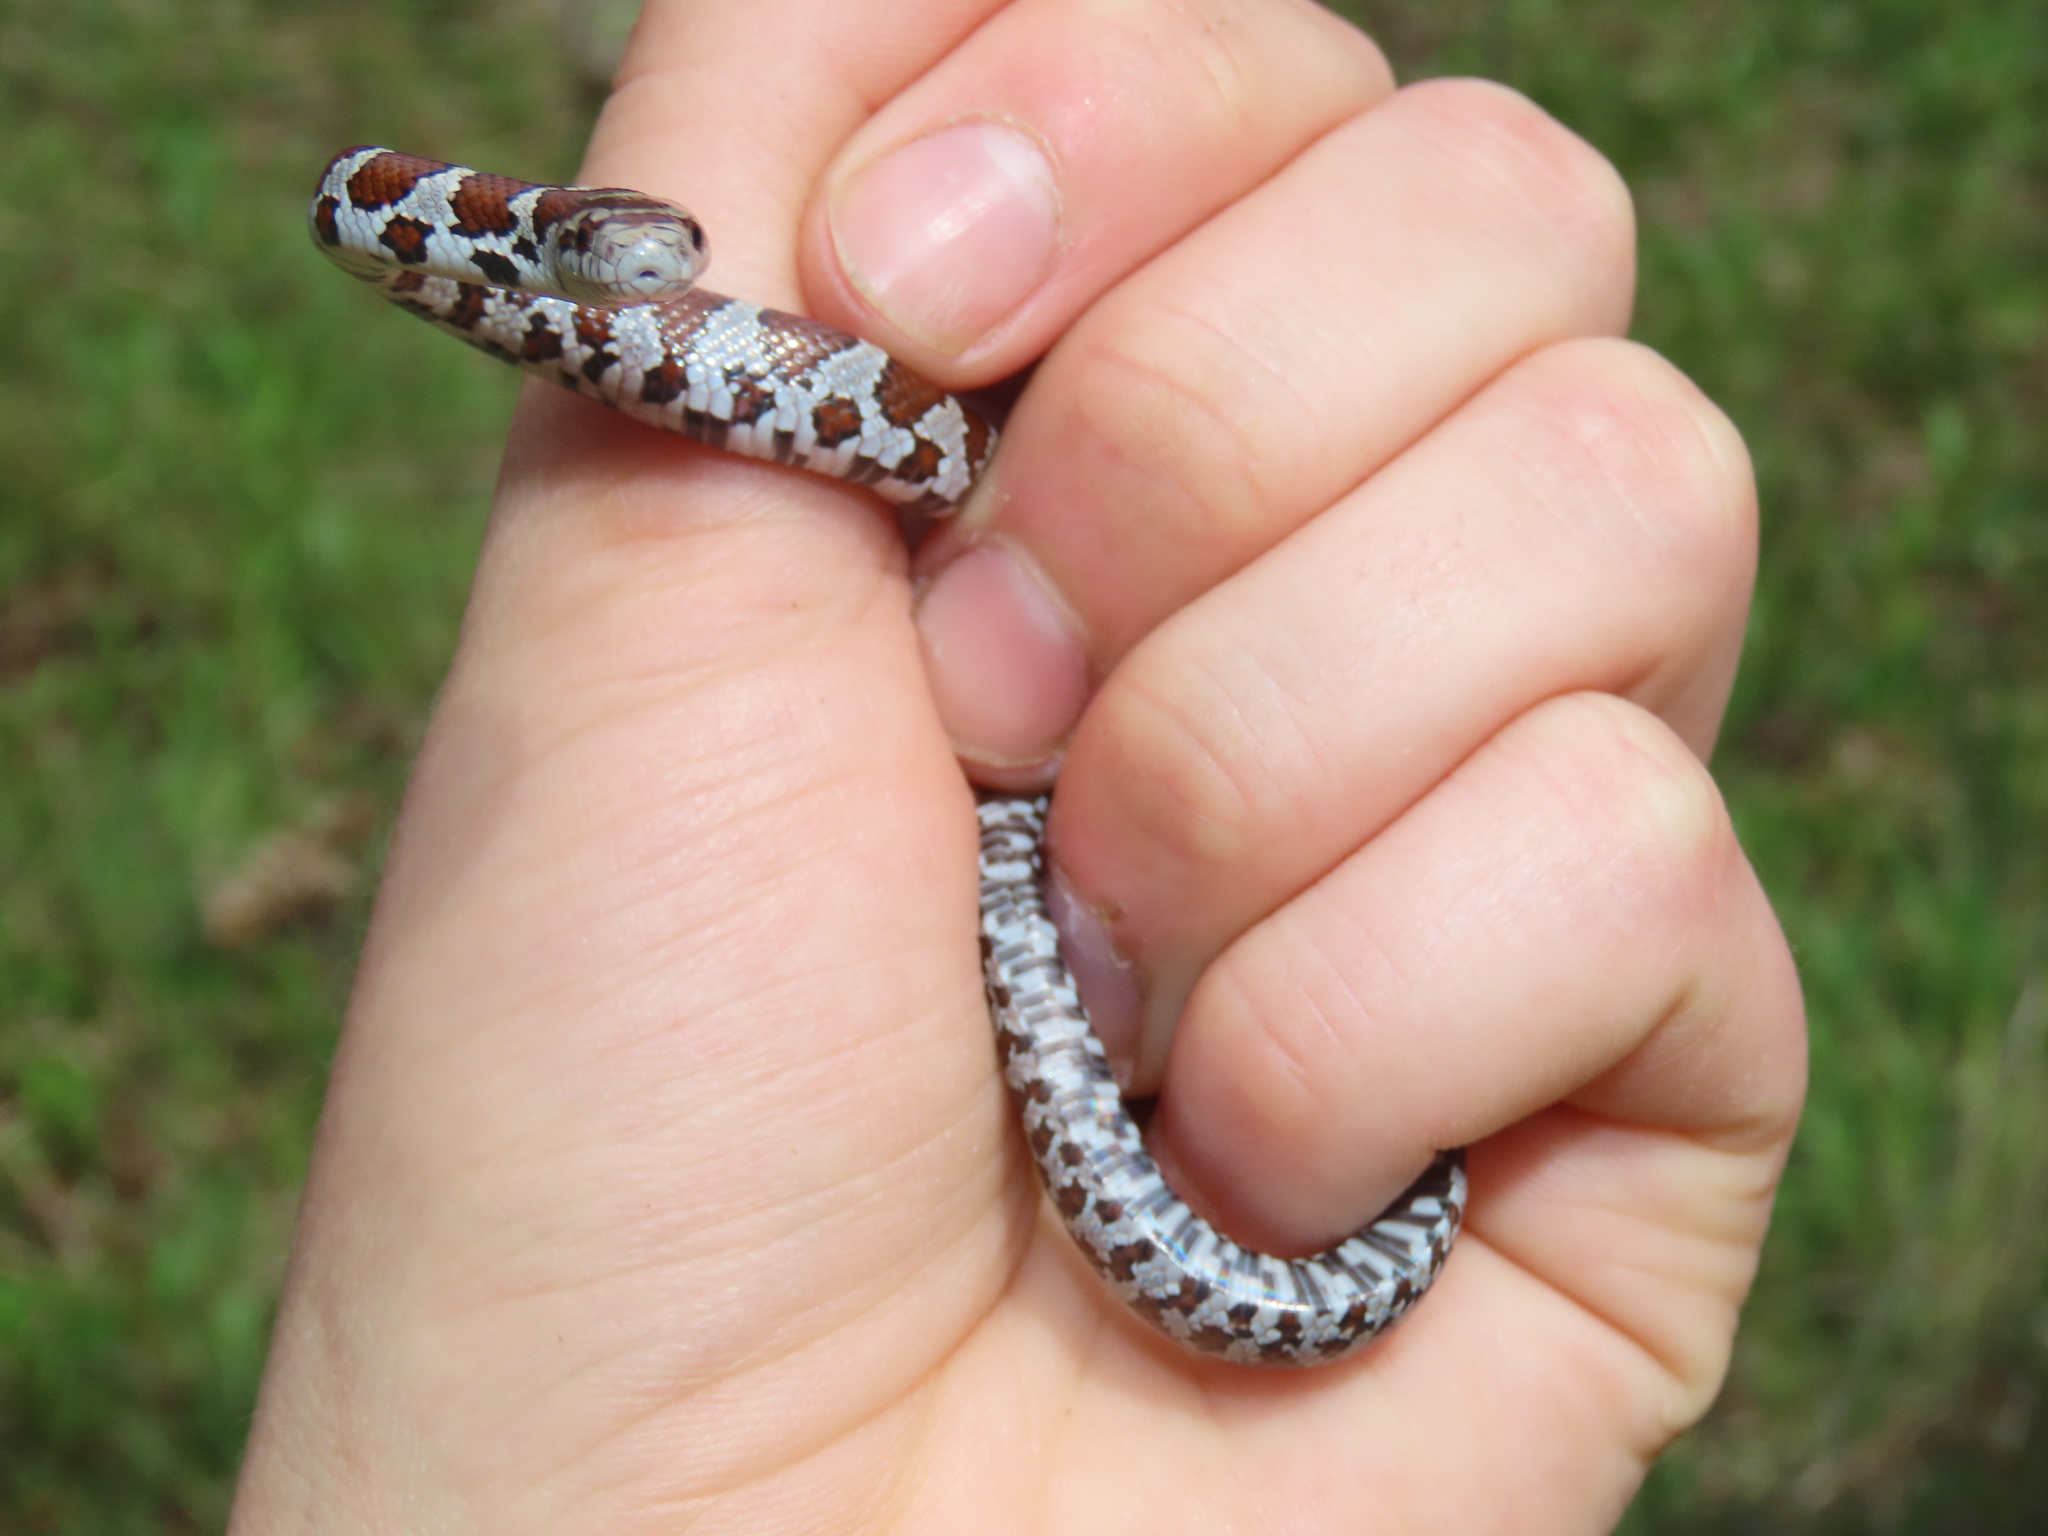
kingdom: Animalia
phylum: Chordata
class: Squamata
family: Colubridae
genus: Lampropeltis
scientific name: Lampropeltis triangulum
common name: Eastern milksnake
